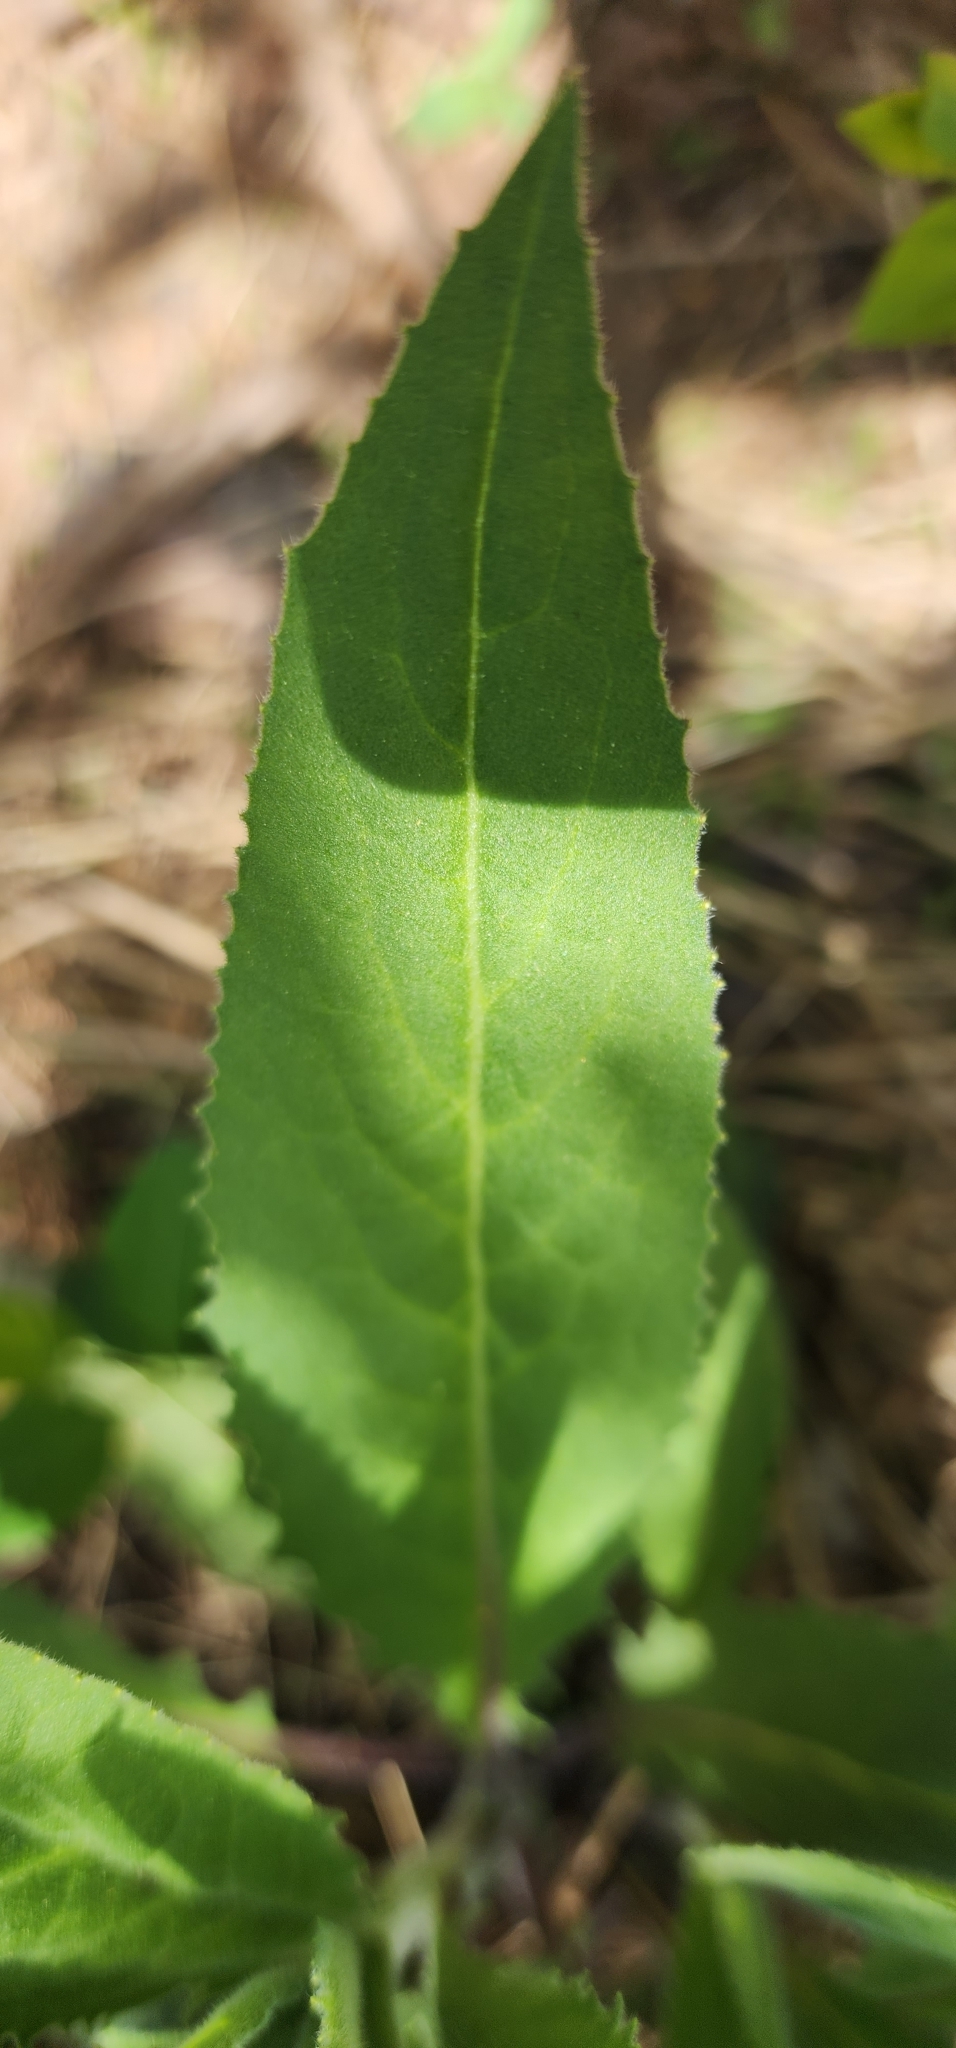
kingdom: Plantae
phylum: Tracheophyta
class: Magnoliopsida
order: Brassicales
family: Brassicaceae
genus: Hesperis
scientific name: Hesperis matronalis
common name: Dame's-violet
